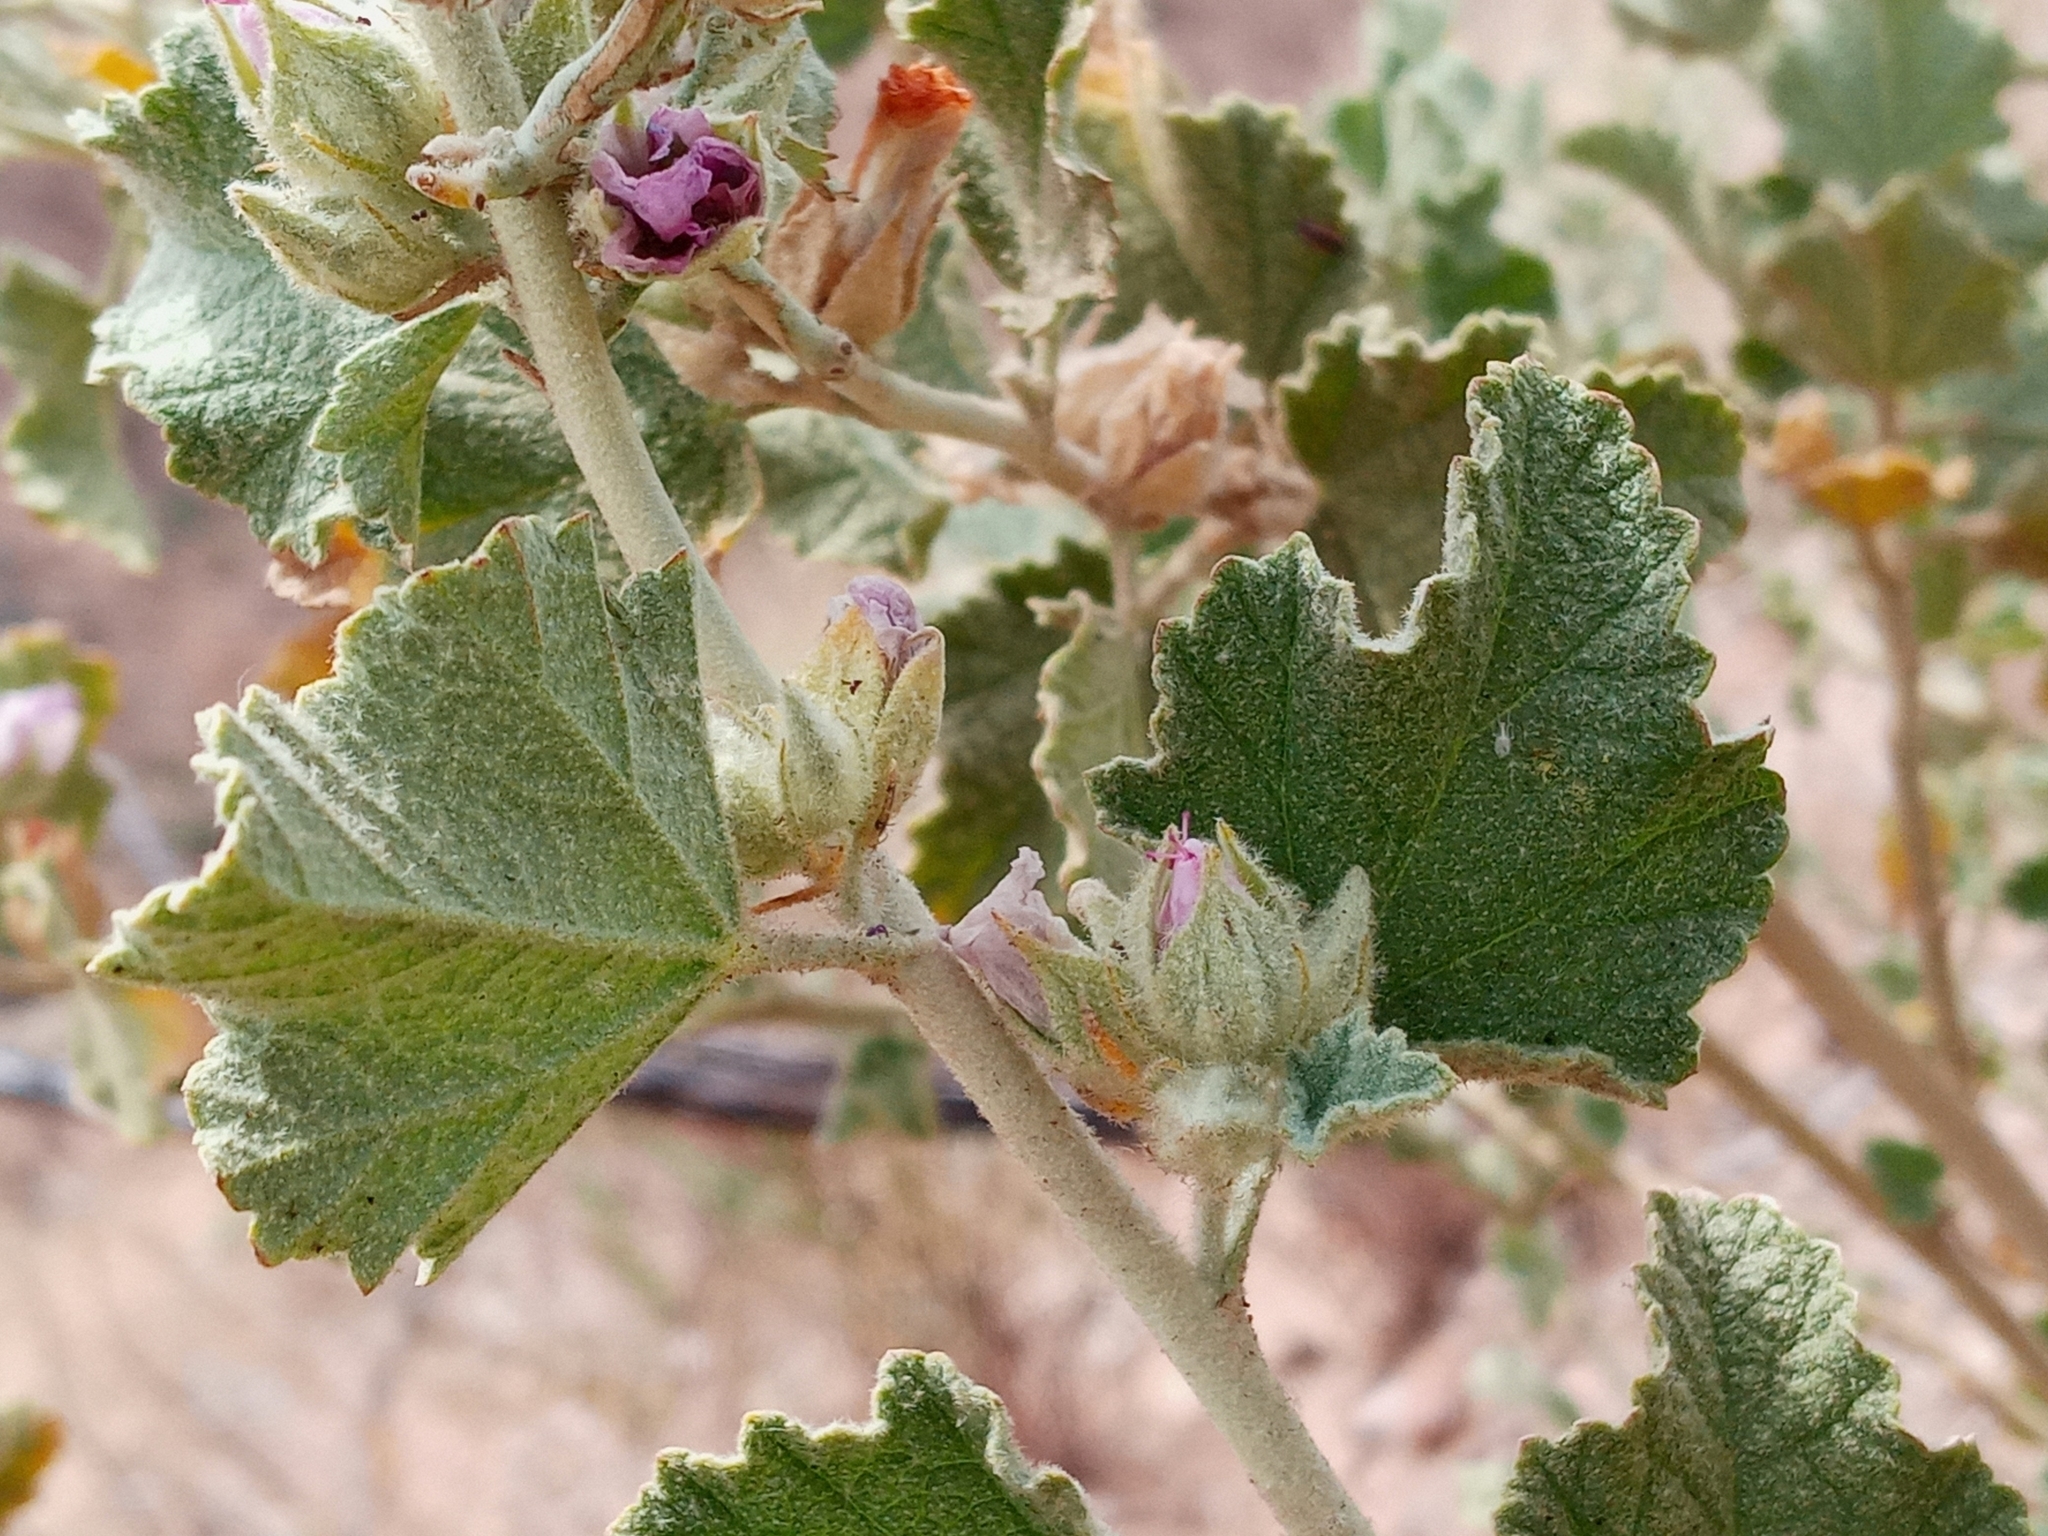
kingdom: Plantae
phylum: Tracheophyta
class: Magnoliopsida
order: Malvales
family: Malvaceae
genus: Malacothamnus
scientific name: Malacothamnus marrubioides
